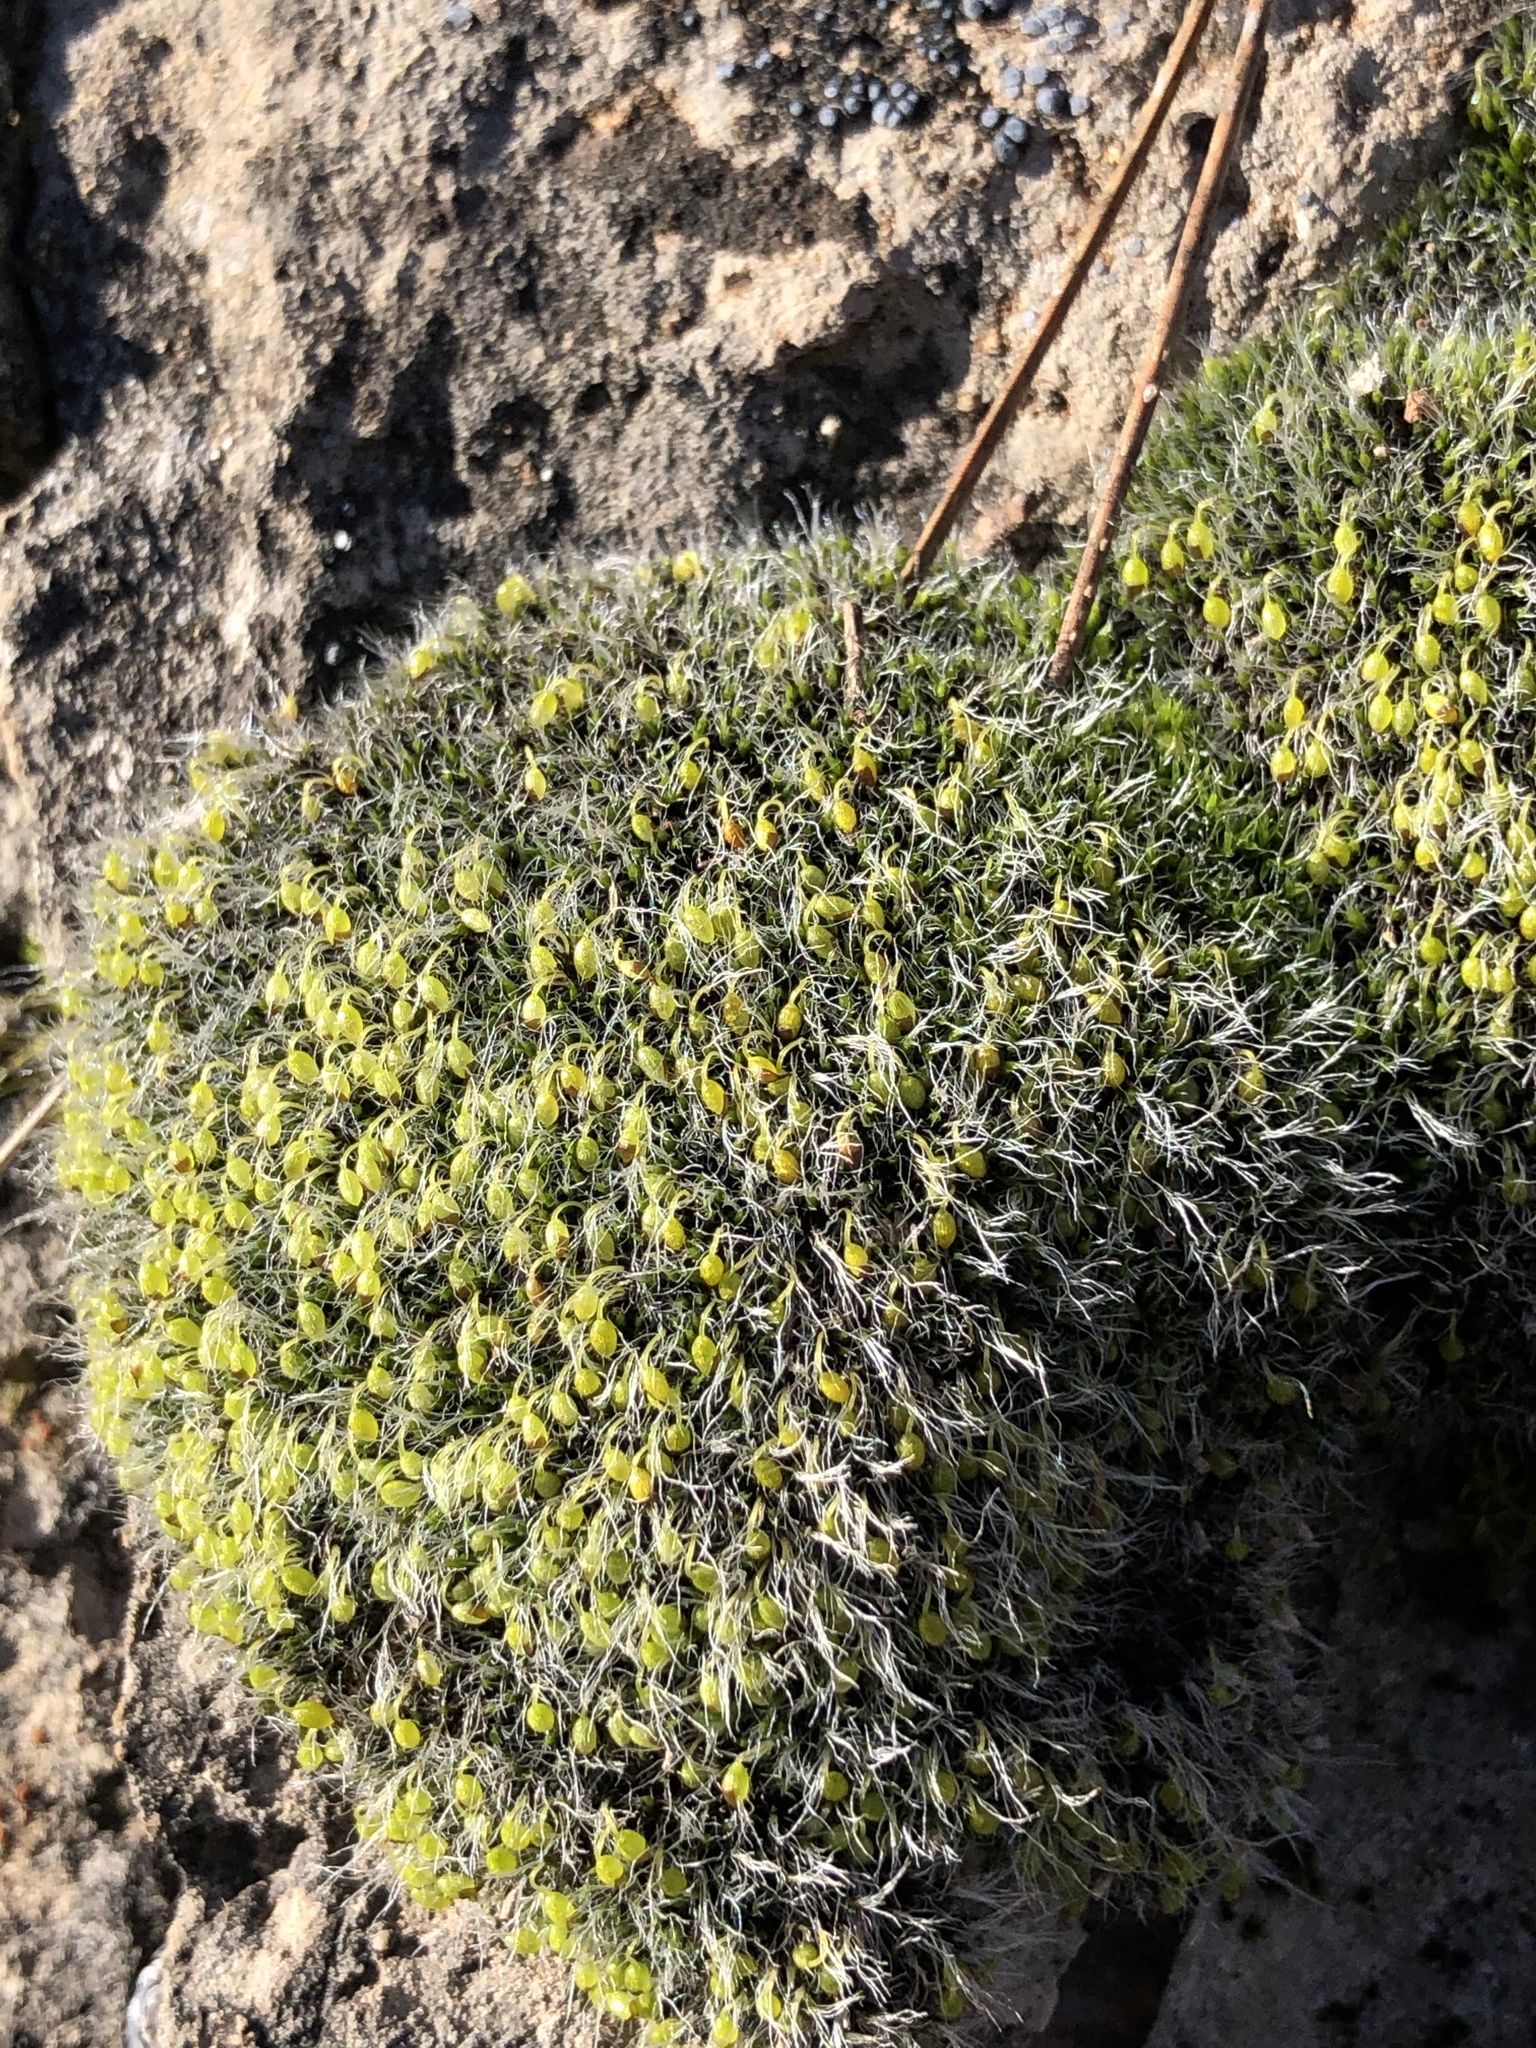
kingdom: Plantae
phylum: Bryophyta
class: Bryopsida
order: Grimmiales
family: Grimmiaceae
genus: Grimmia
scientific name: Grimmia pulvinata
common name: Grey-cushioned grimmia
